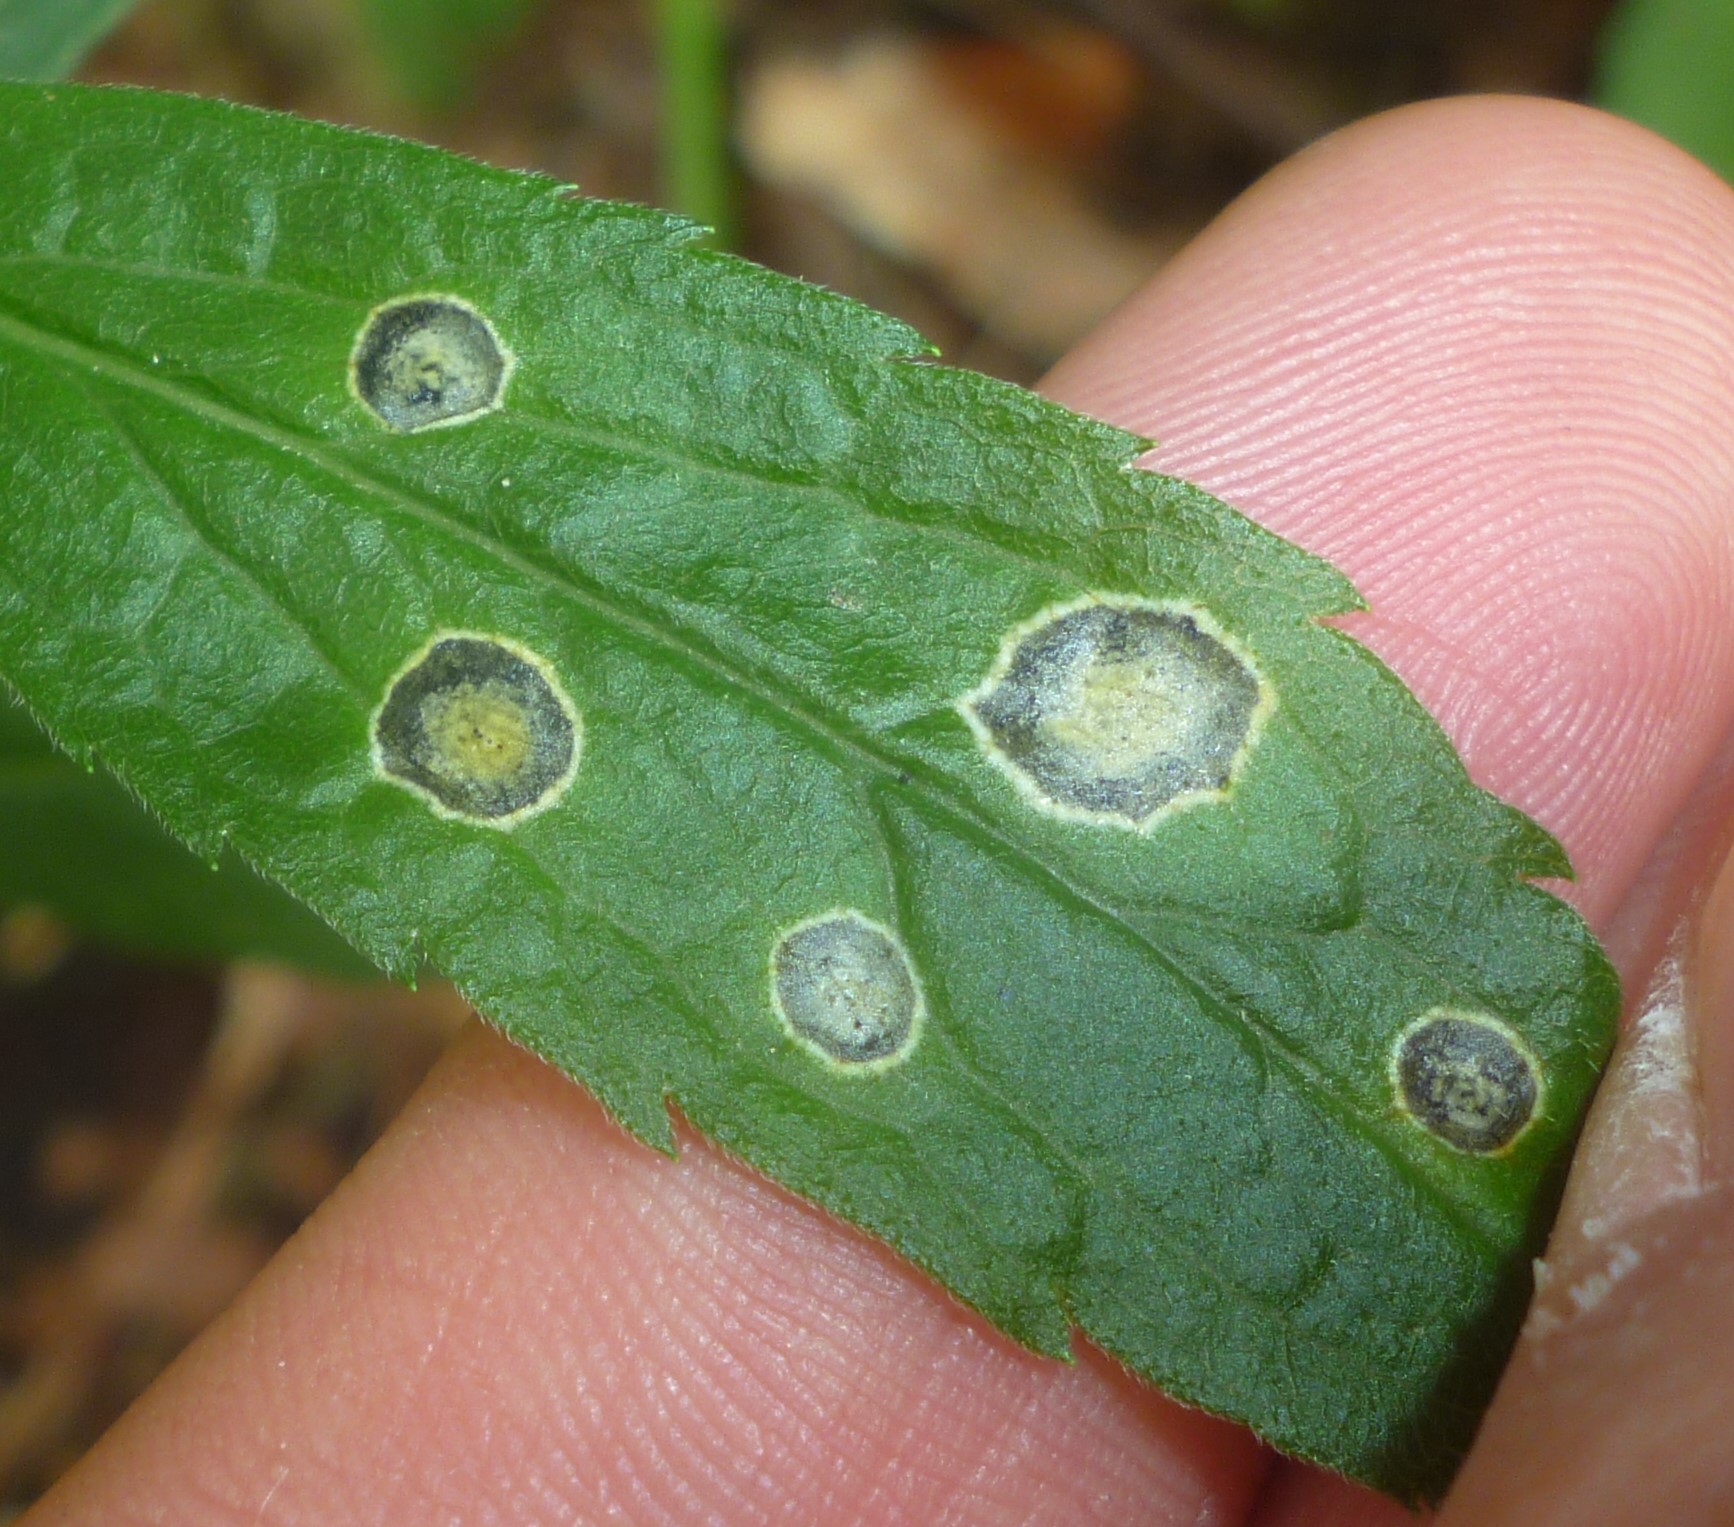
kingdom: Animalia
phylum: Arthropoda
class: Insecta
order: Diptera
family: Cecidomyiidae
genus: Asteromyia
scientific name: Asteromyia carbonifera
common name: Carbonifera goldenrod gall midge
